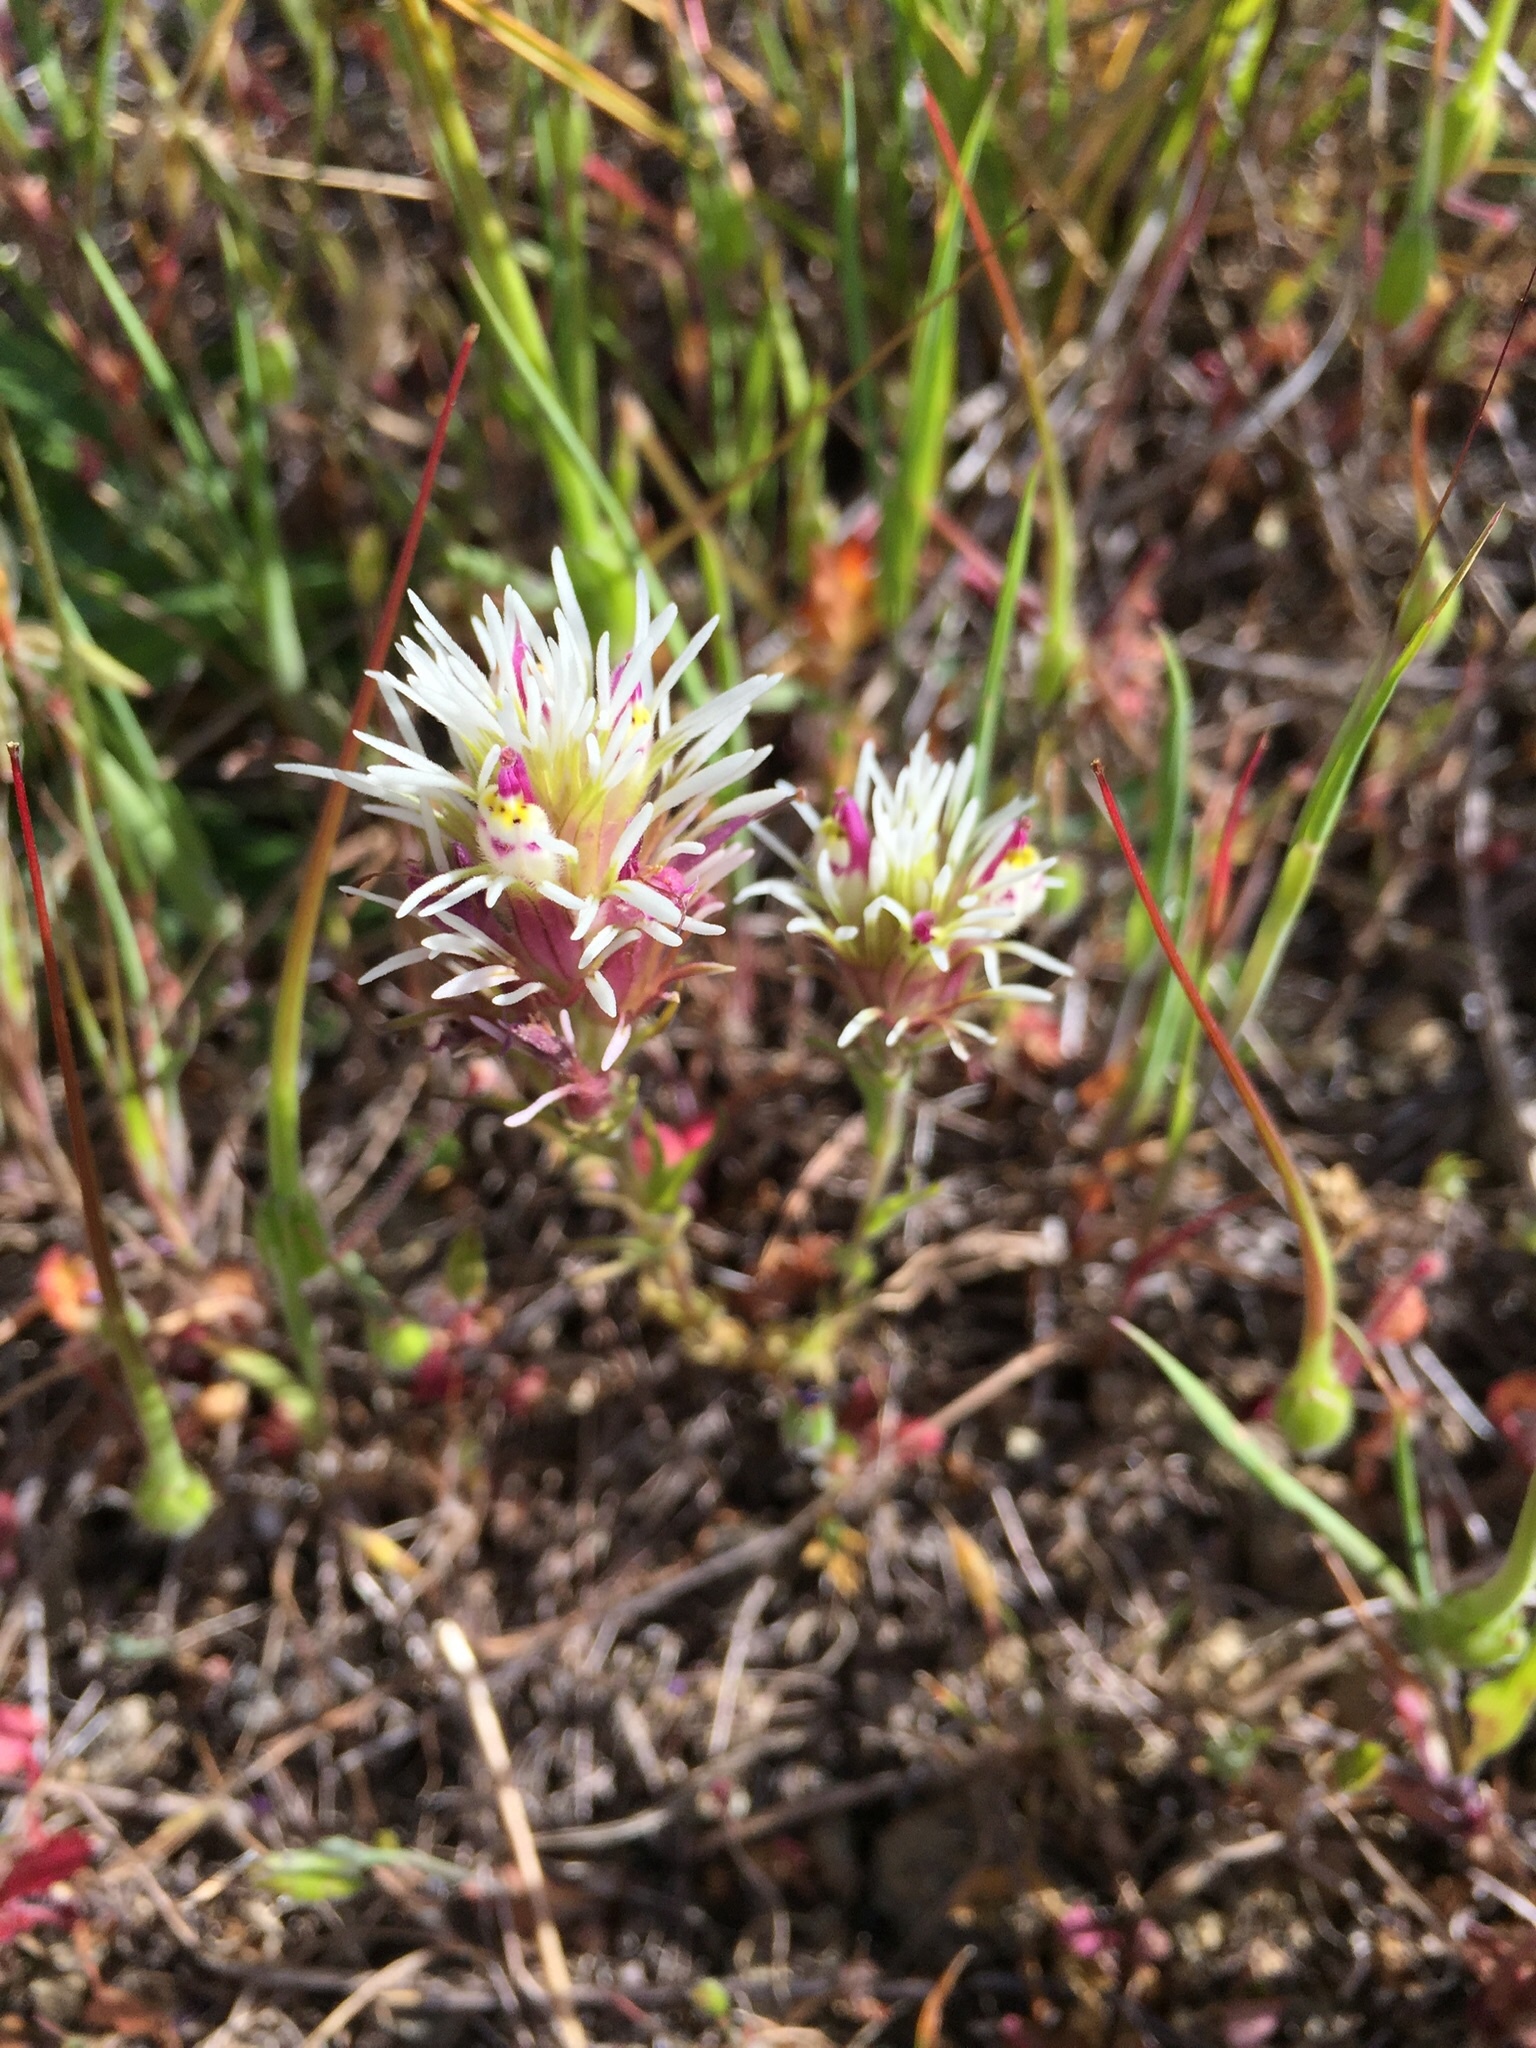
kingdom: Plantae
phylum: Tracheophyta
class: Magnoliopsida
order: Lamiales
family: Orobanchaceae
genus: Castilleja
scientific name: Castilleja densiflora
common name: Dense-flower indian paintbrush
